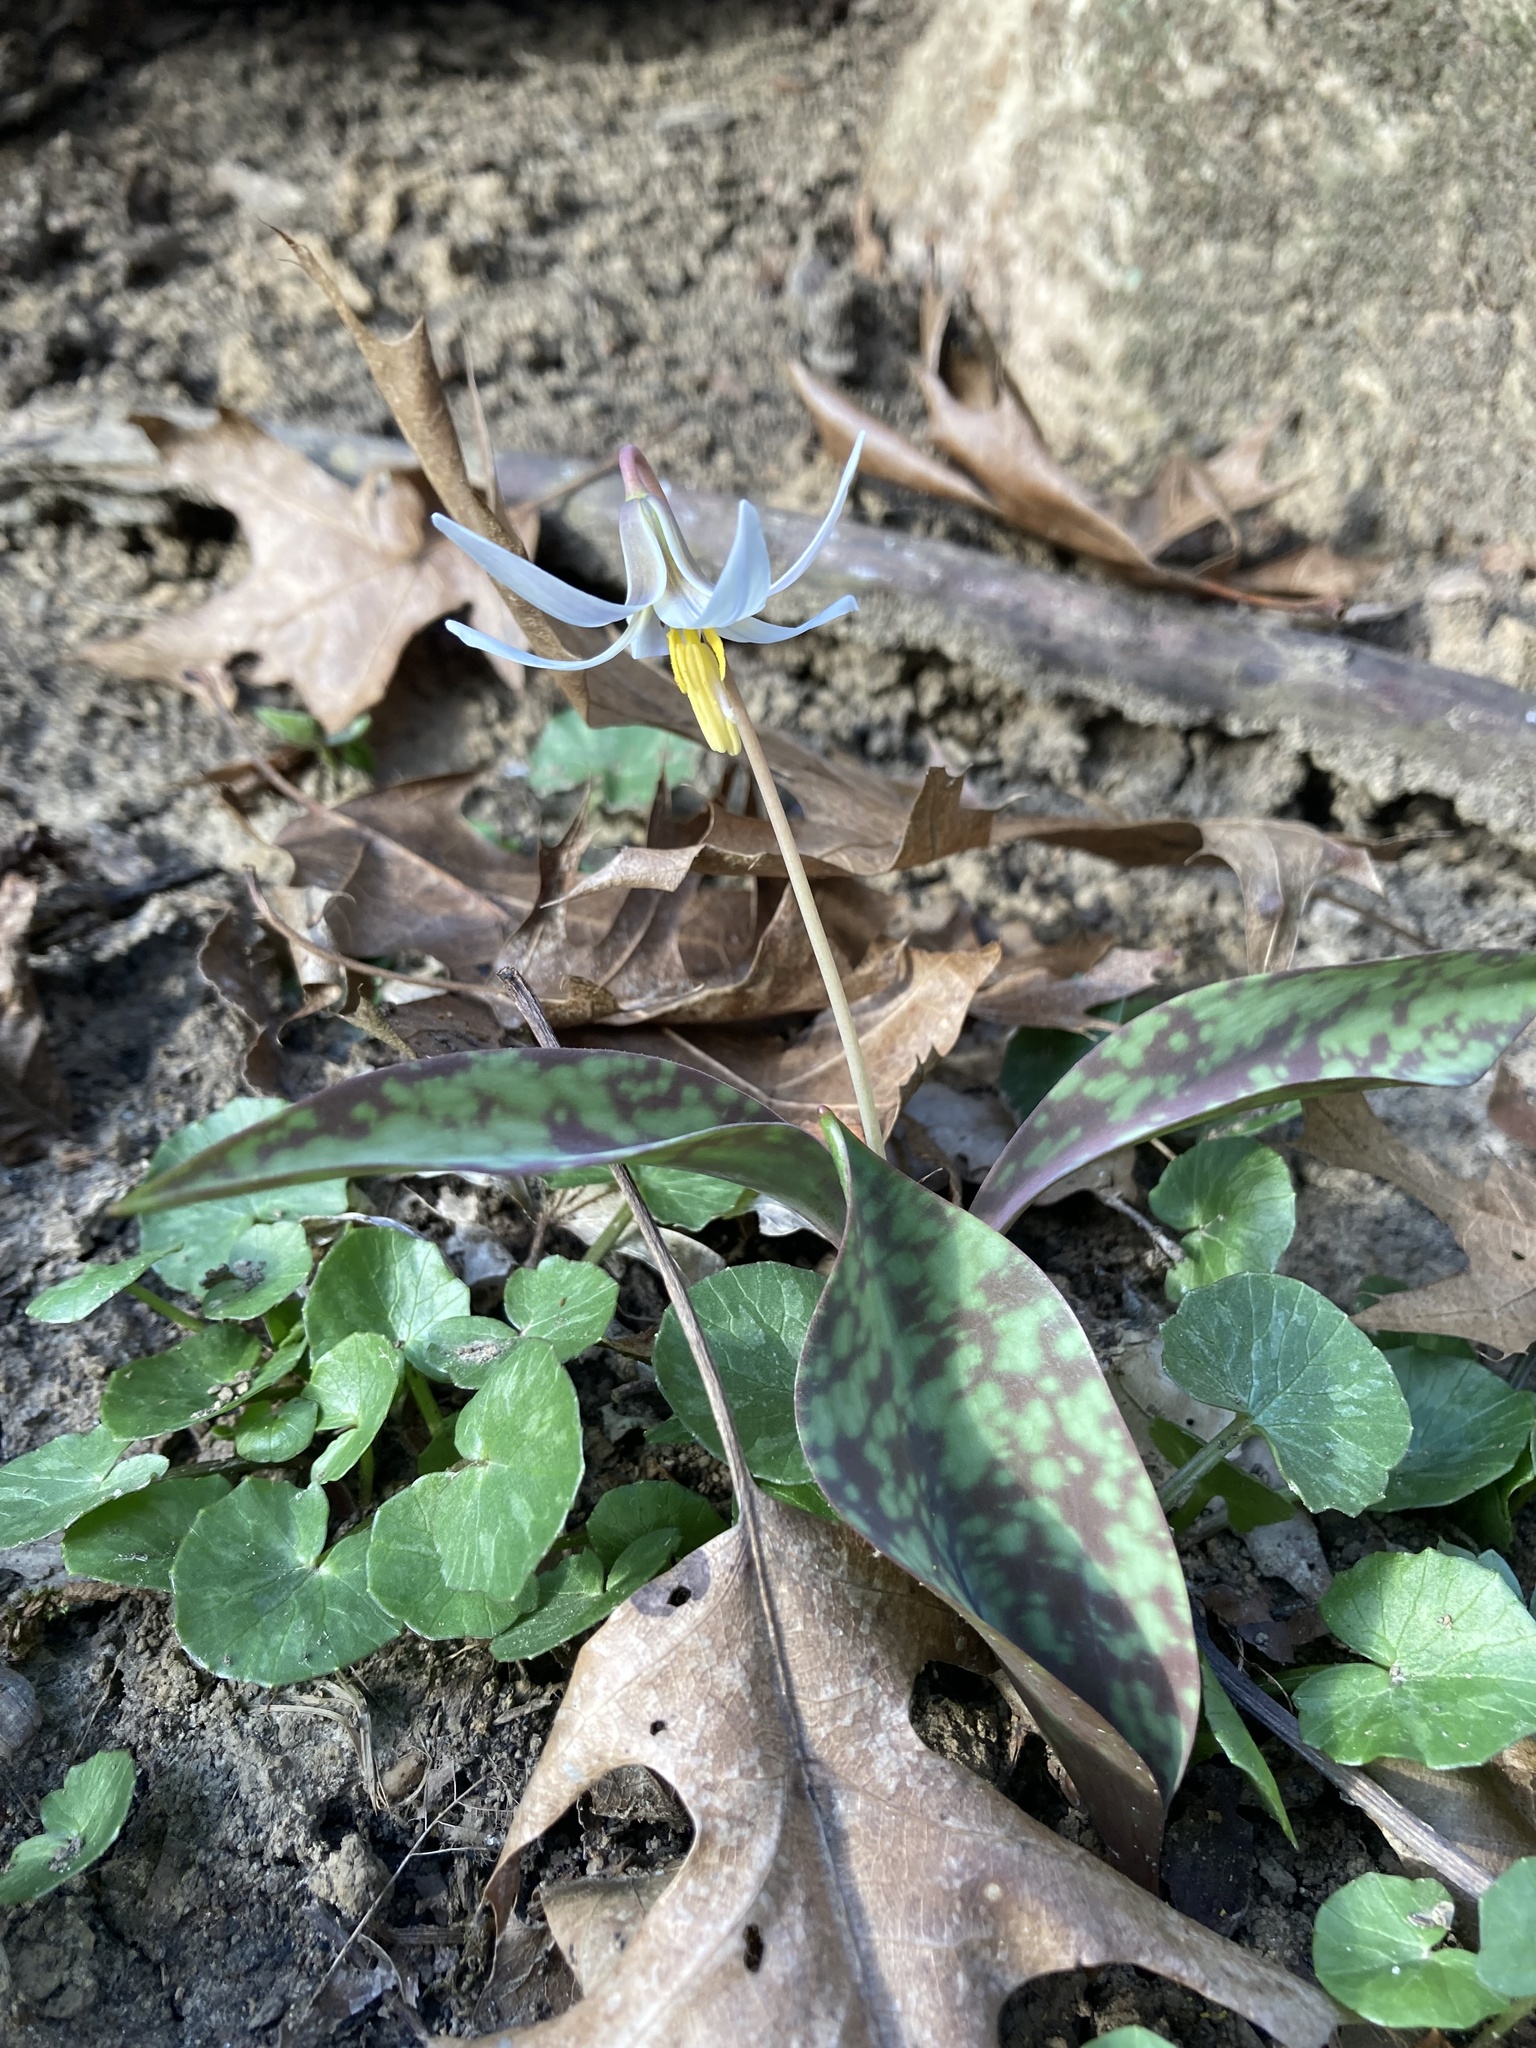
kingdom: Plantae
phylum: Tracheophyta
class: Liliopsida
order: Liliales
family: Liliaceae
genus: Erythronium
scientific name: Erythronium albidum
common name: White trout-lily
